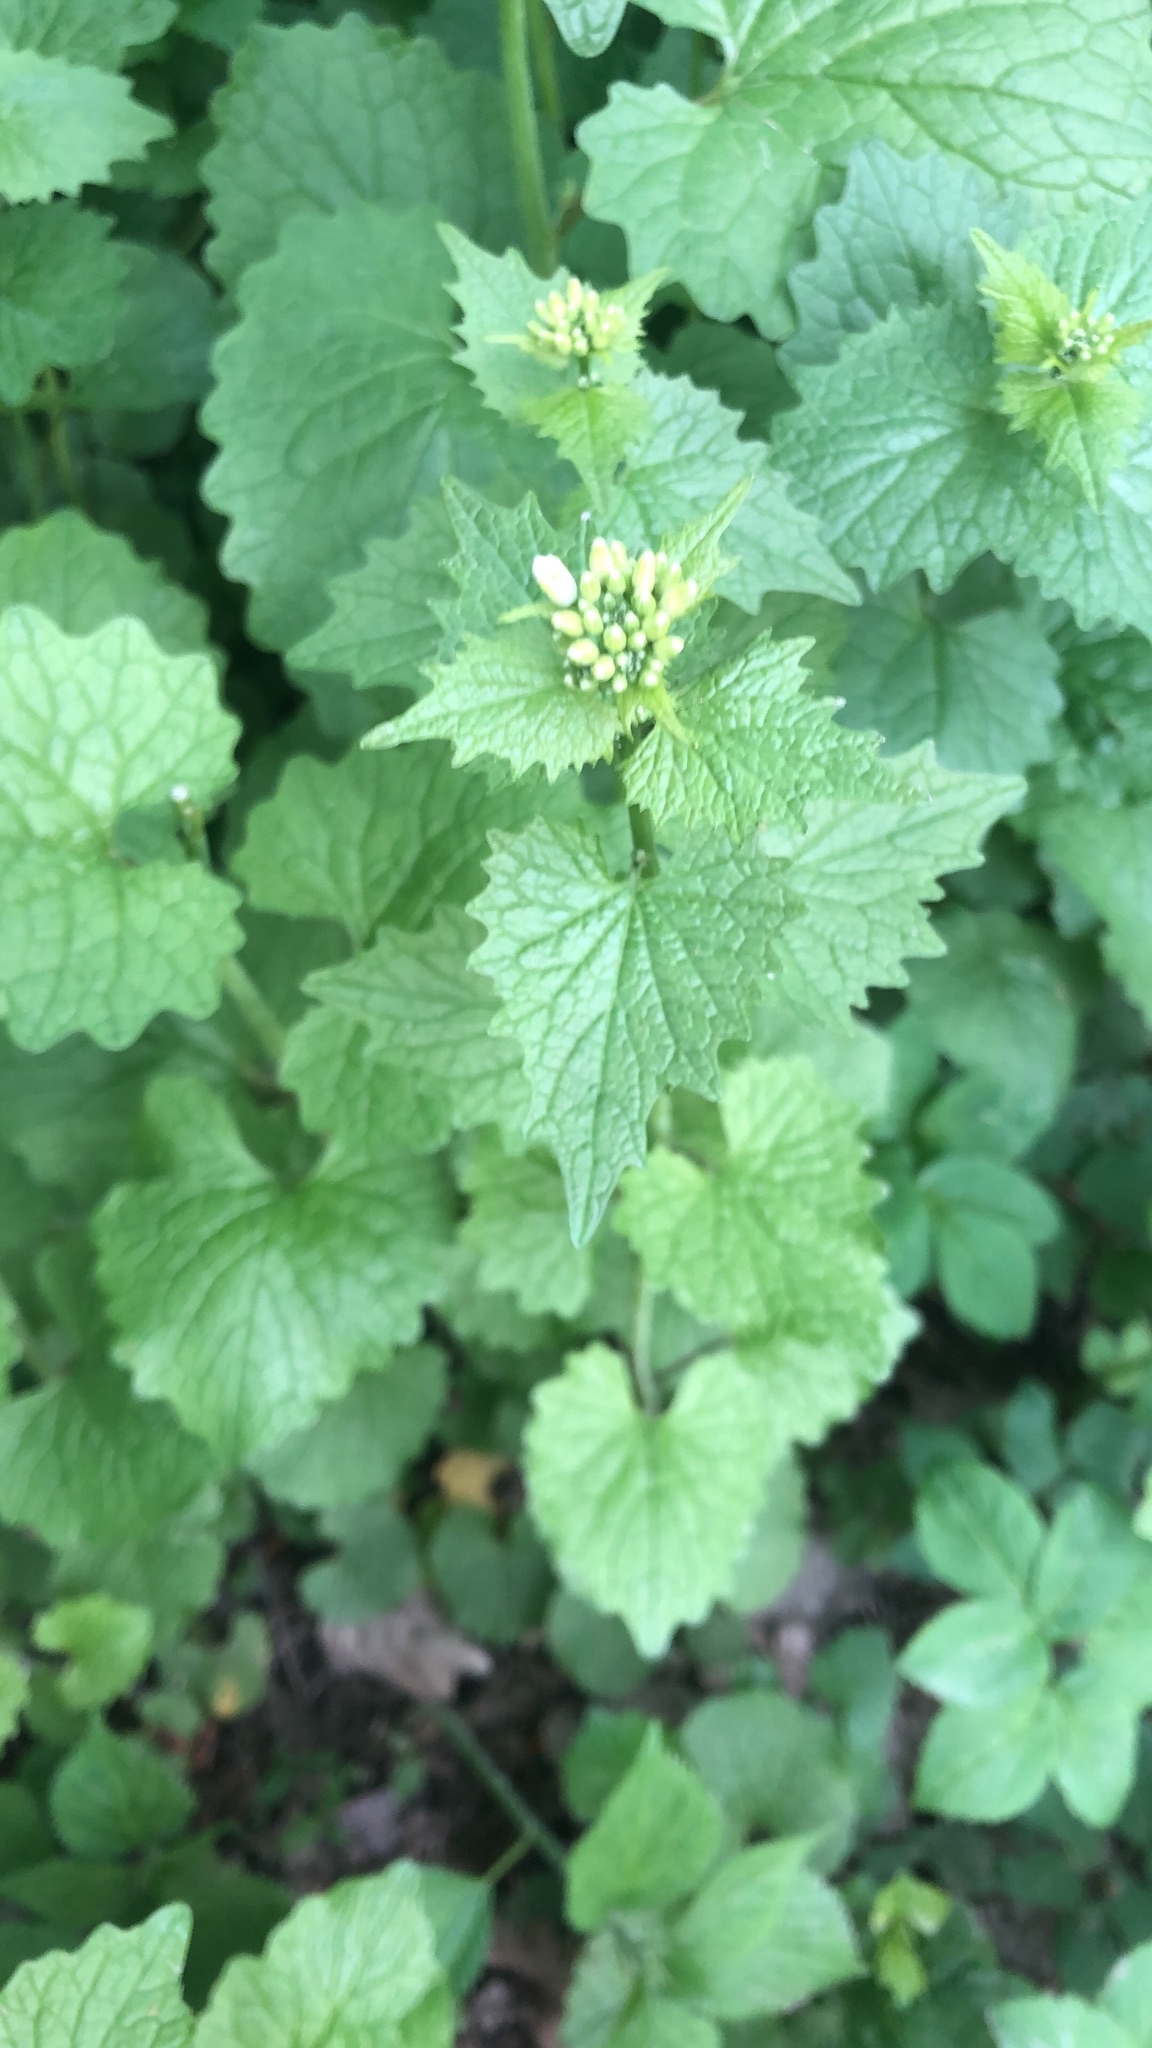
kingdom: Plantae
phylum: Tracheophyta
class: Magnoliopsida
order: Brassicales
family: Brassicaceae
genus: Alliaria
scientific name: Alliaria petiolata
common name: Garlic mustard
